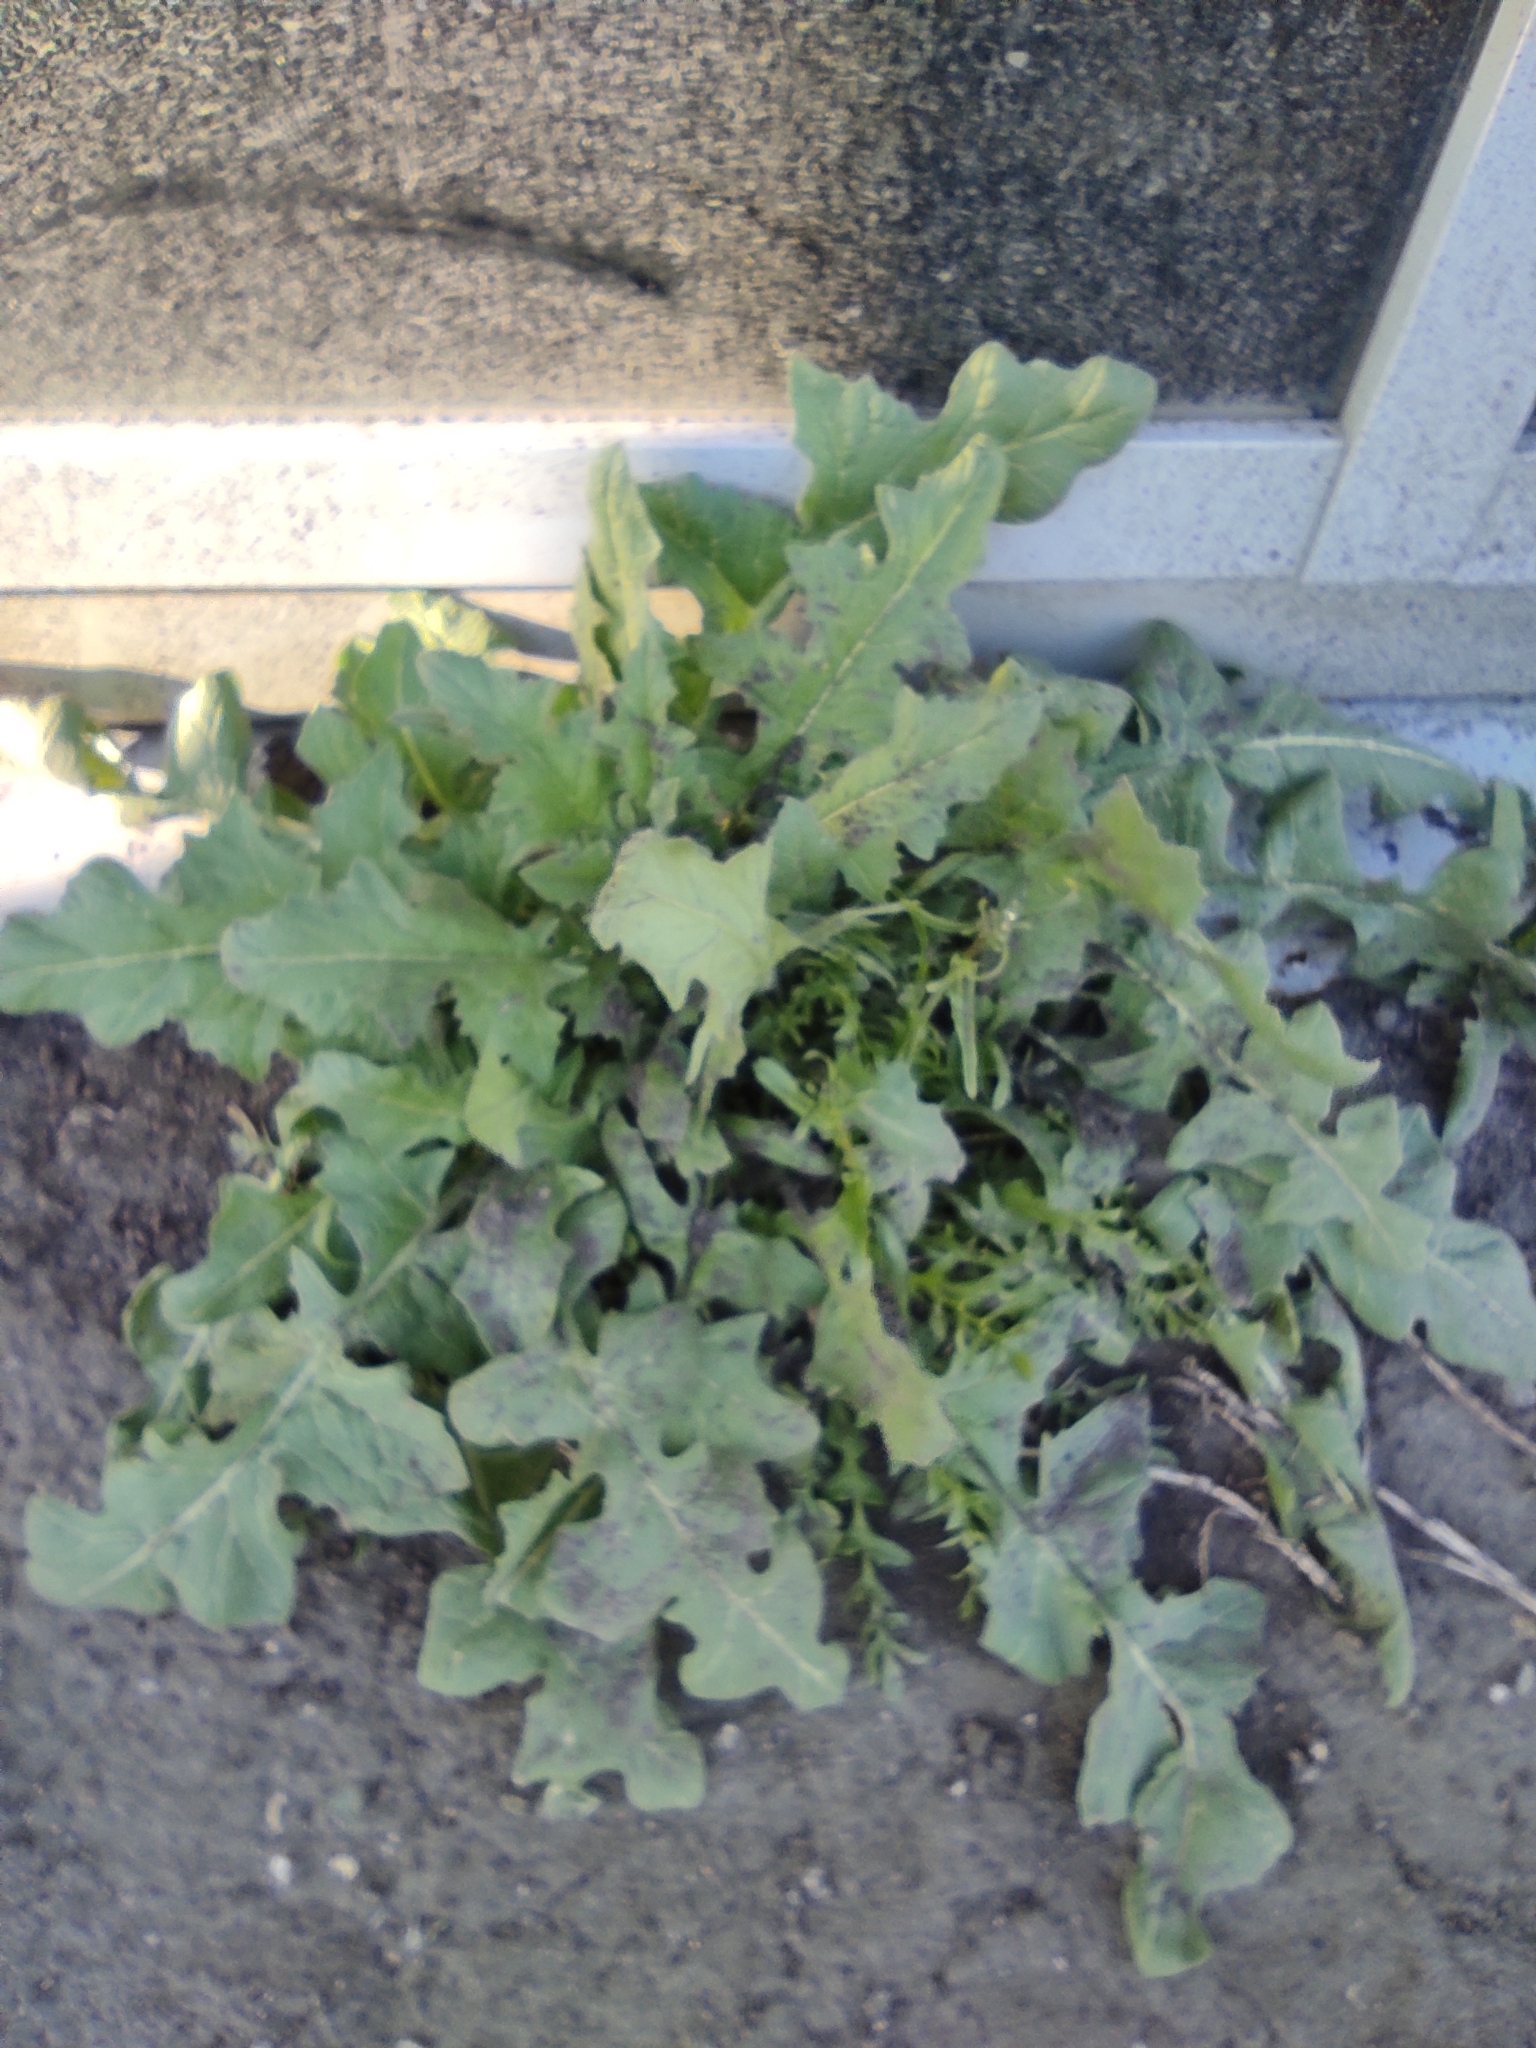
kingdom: Plantae
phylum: Tracheophyta
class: Magnoliopsida
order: Brassicales
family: Brassicaceae
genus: Sisymbrium
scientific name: Sisymbrium loeselii
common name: False london-rocket
